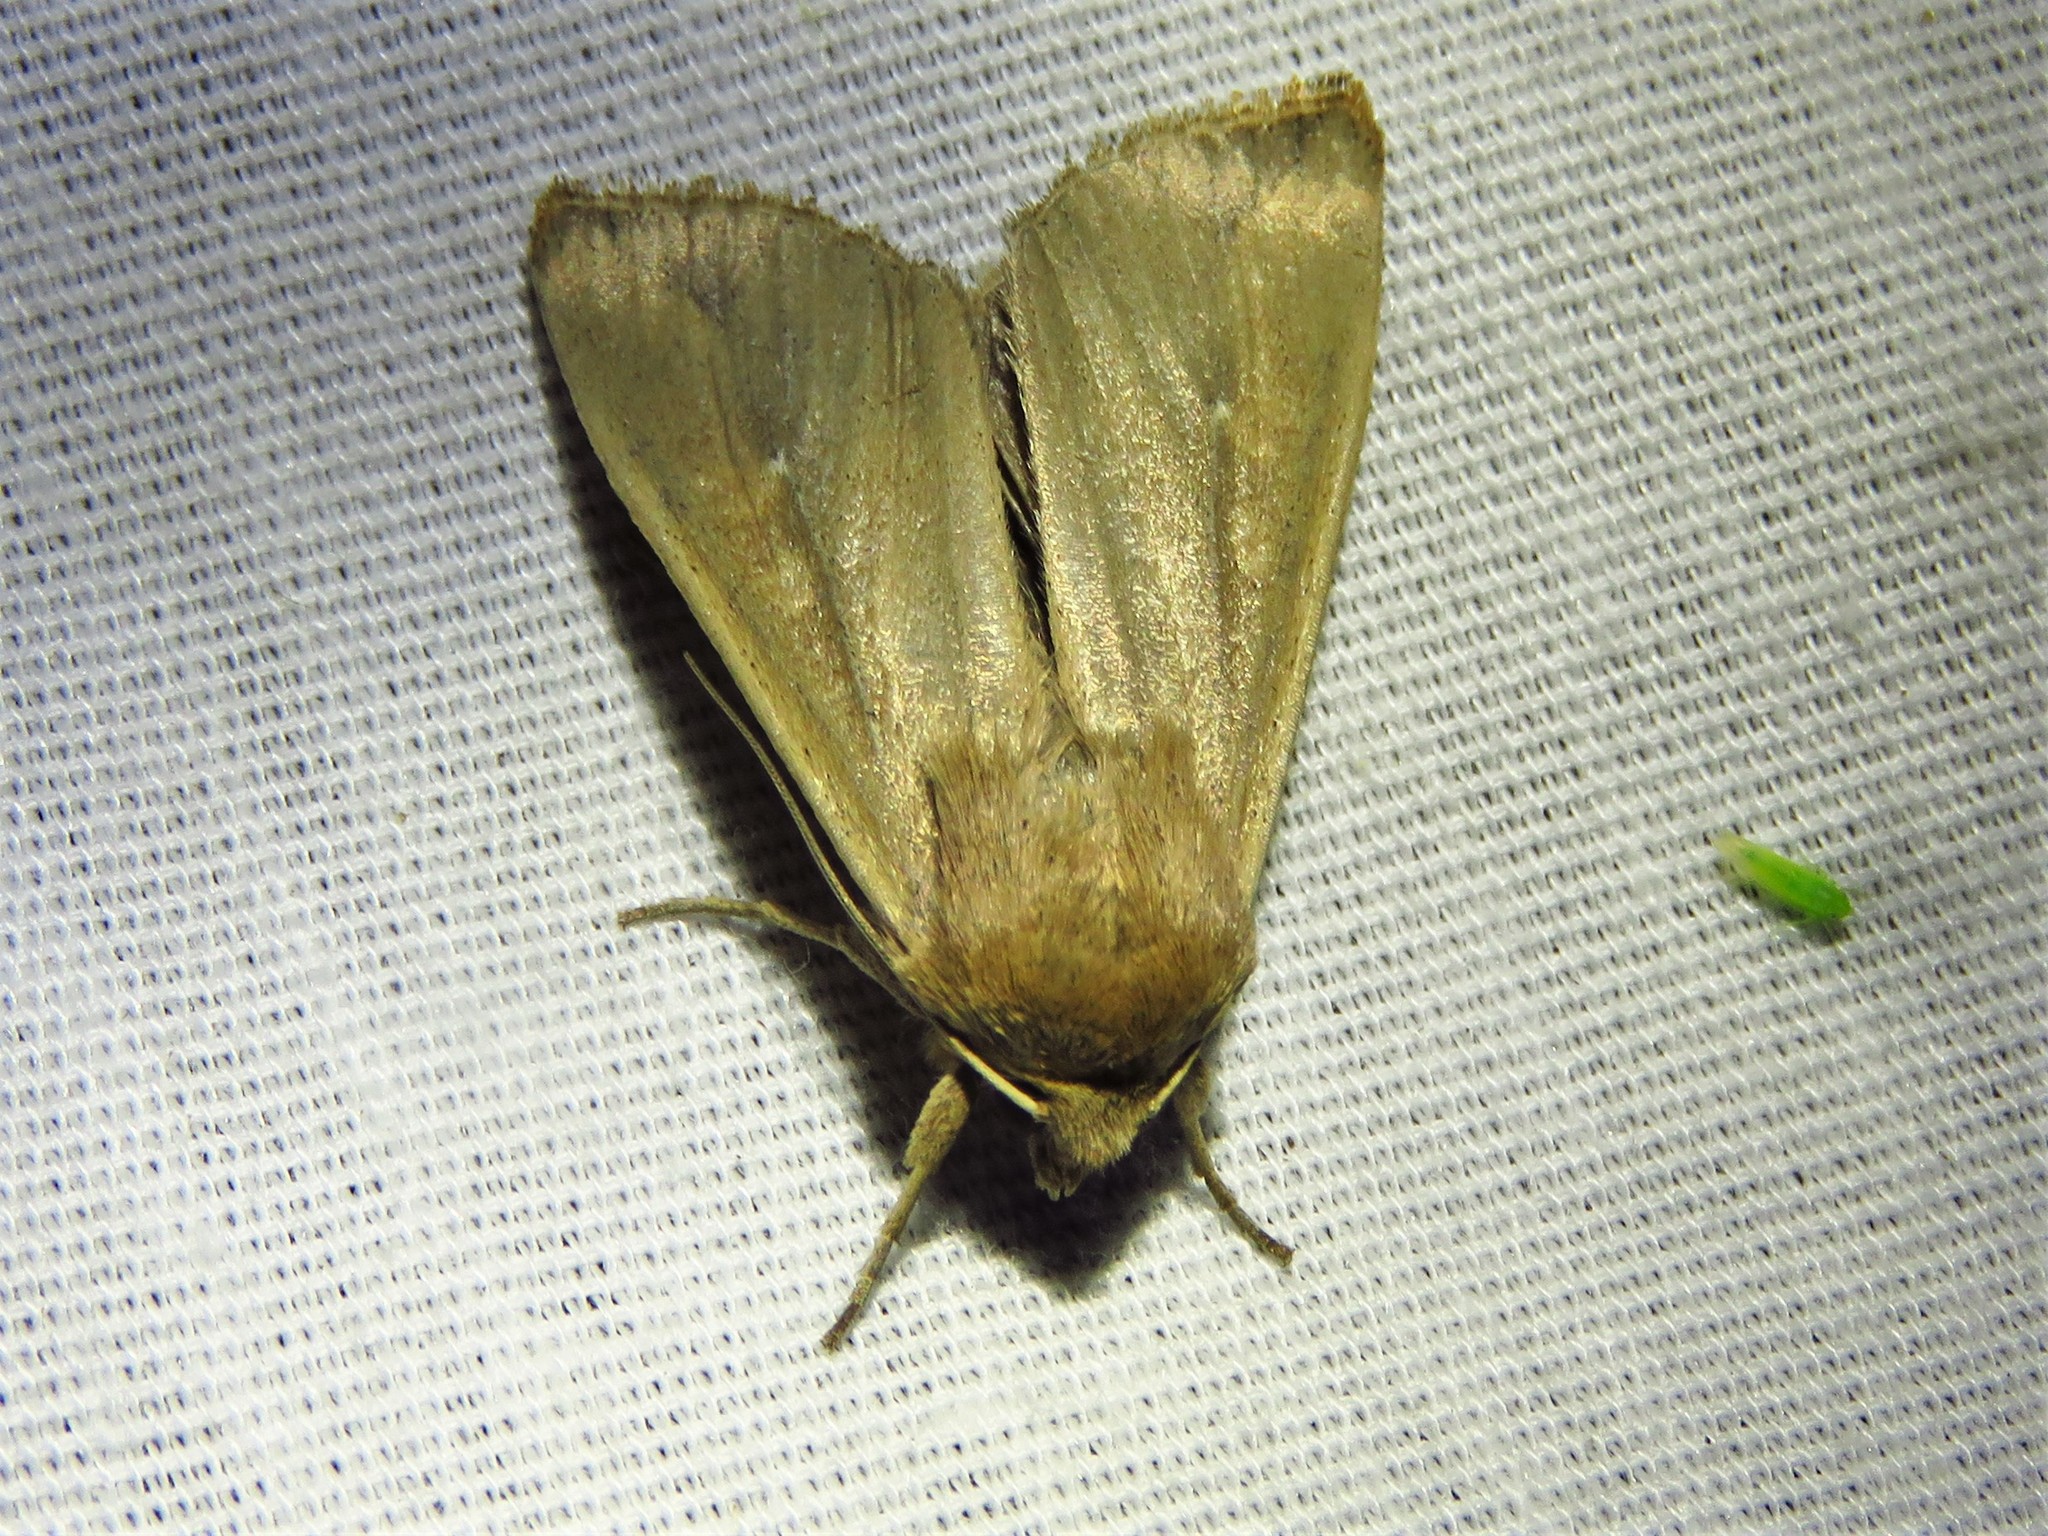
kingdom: Animalia
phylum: Arthropoda
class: Insecta
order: Lepidoptera
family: Noctuidae
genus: Mythimna
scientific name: Mythimna unipuncta
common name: White-speck
